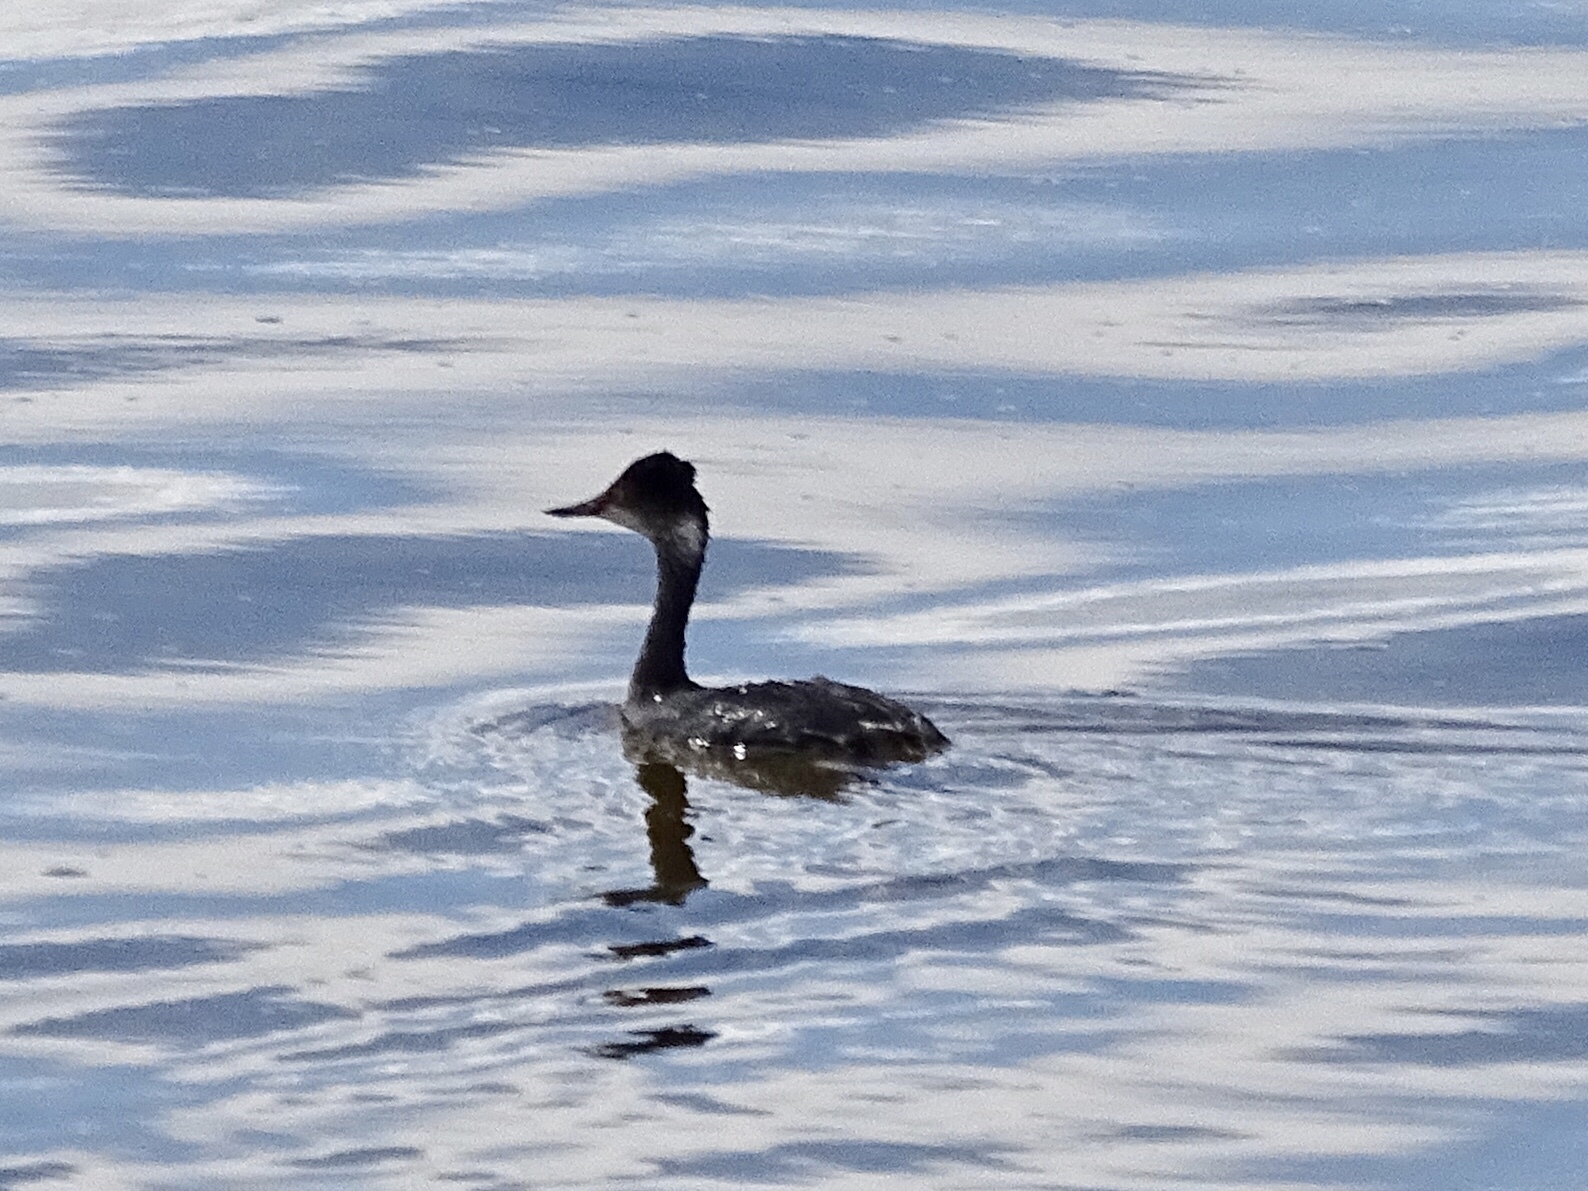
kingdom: Animalia
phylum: Chordata
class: Aves
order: Podicipediformes
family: Podicipedidae
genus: Podiceps
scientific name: Podiceps nigricollis
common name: Black-necked grebe
